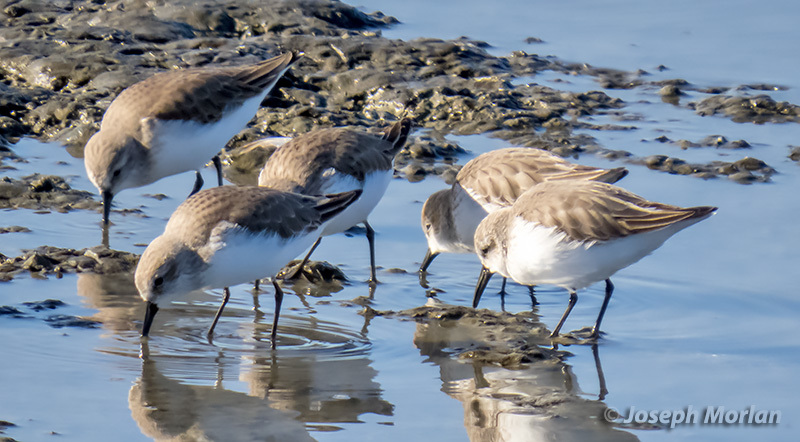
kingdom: Animalia
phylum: Chordata
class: Aves
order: Charadriiformes
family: Scolopacidae
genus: Calidris
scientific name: Calidris mauri
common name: Western sandpiper
